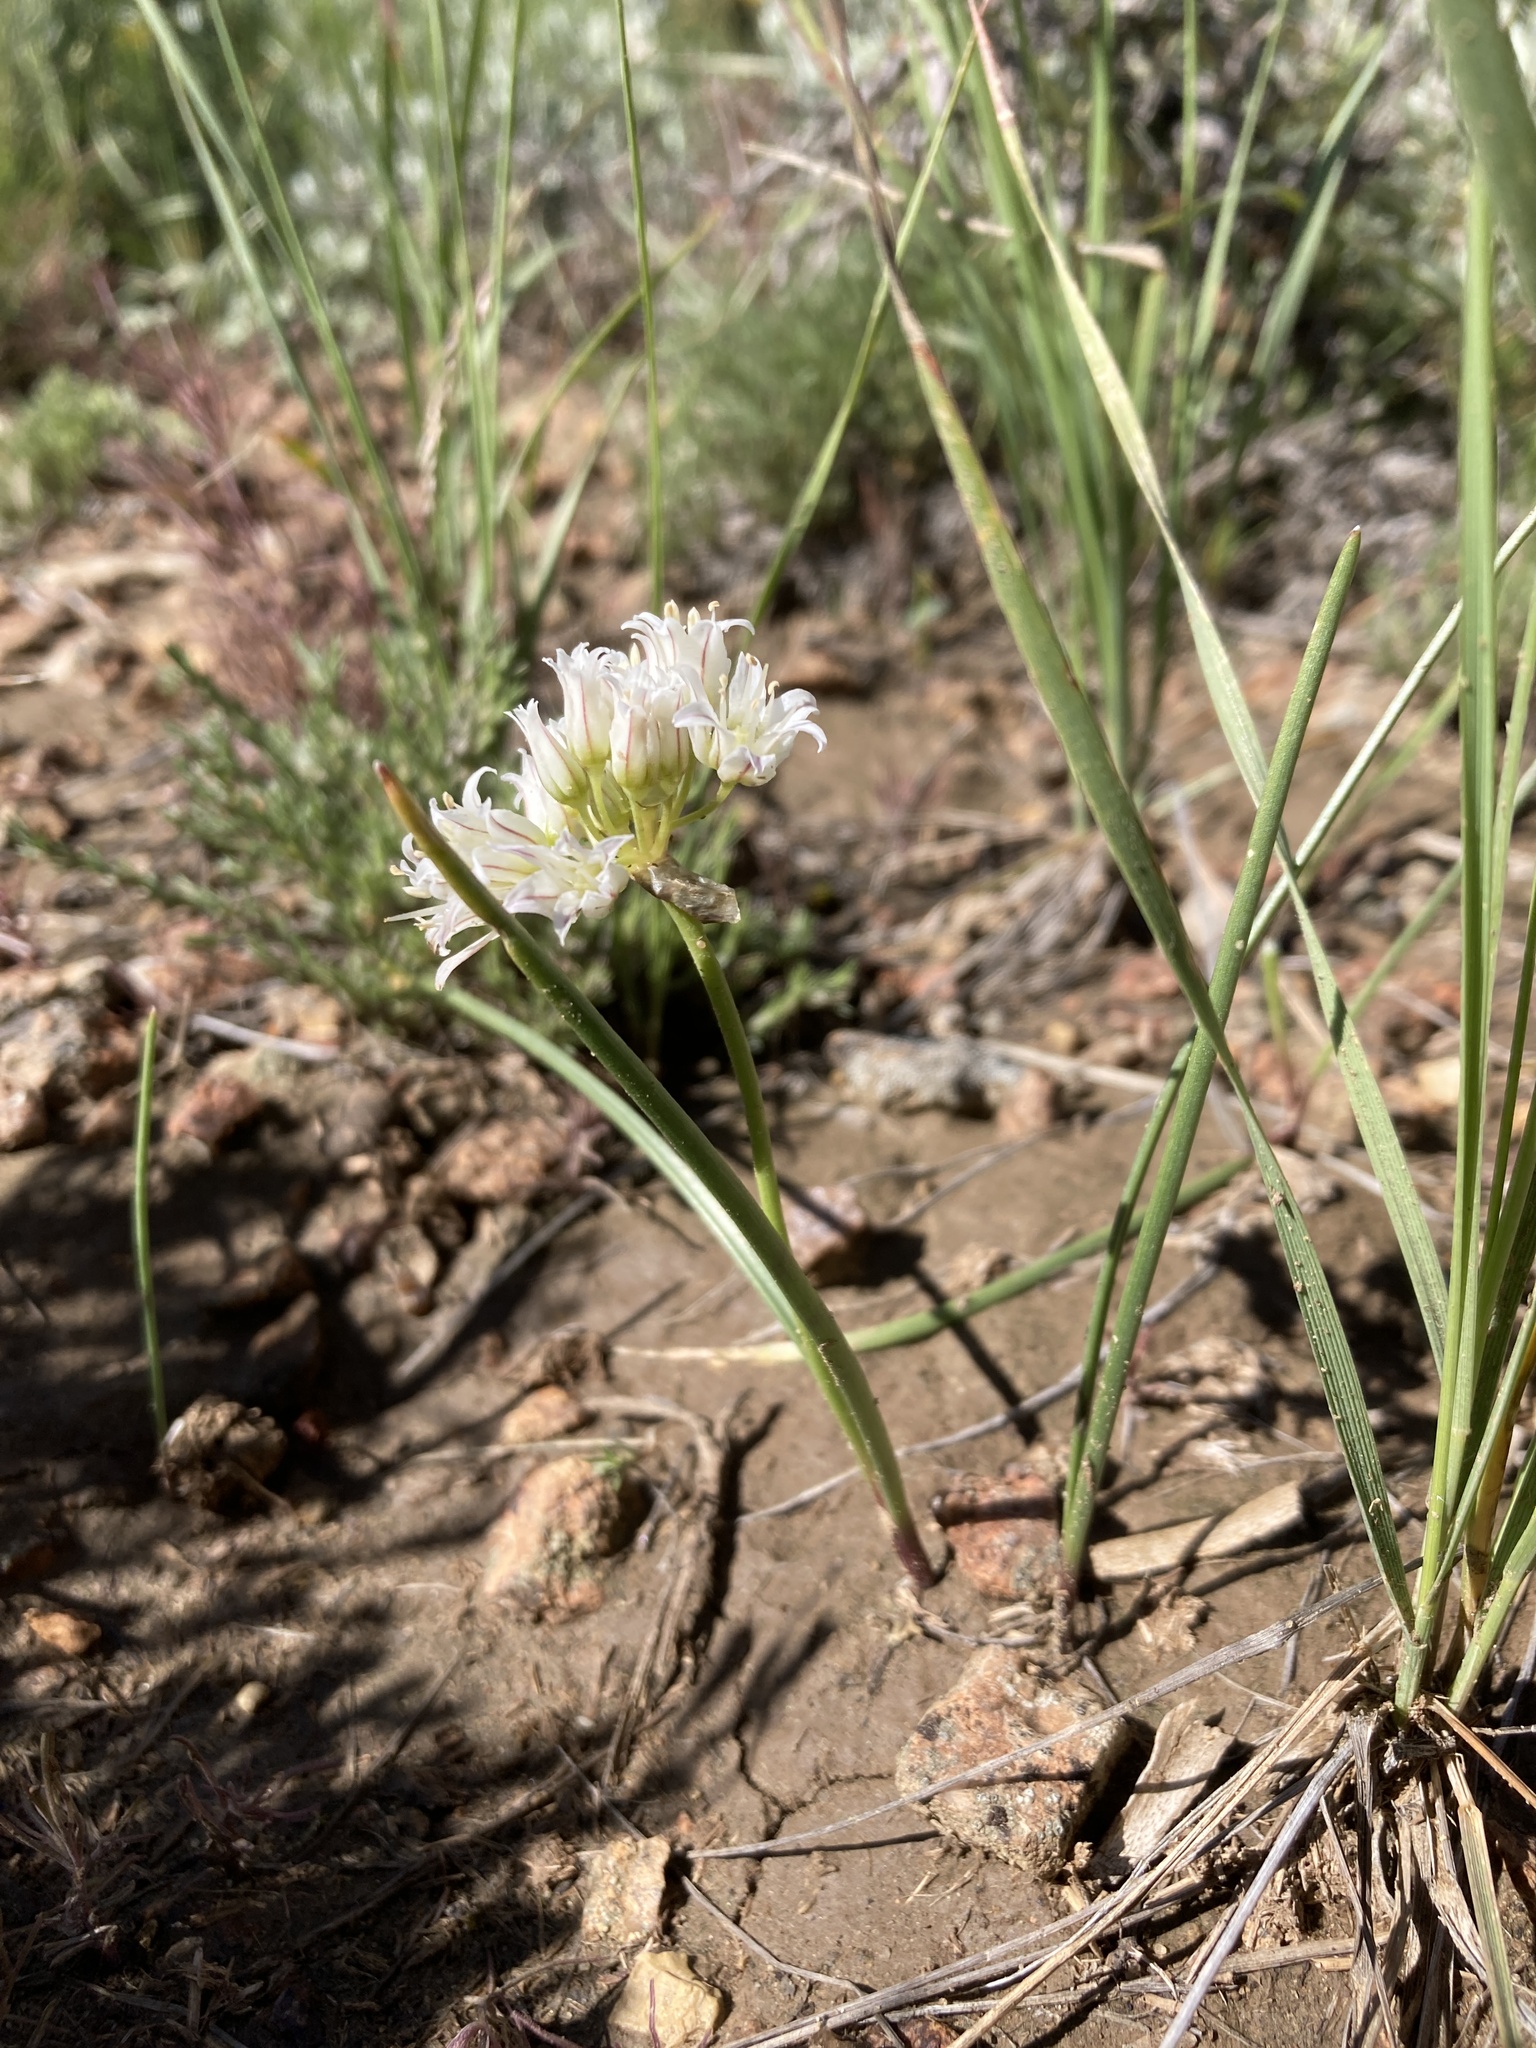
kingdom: Plantae
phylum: Tracheophyta
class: Liliopsida
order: Asparagales
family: Amaryllidaceae
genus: Allium
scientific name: Allium textile
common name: Prairie onion
